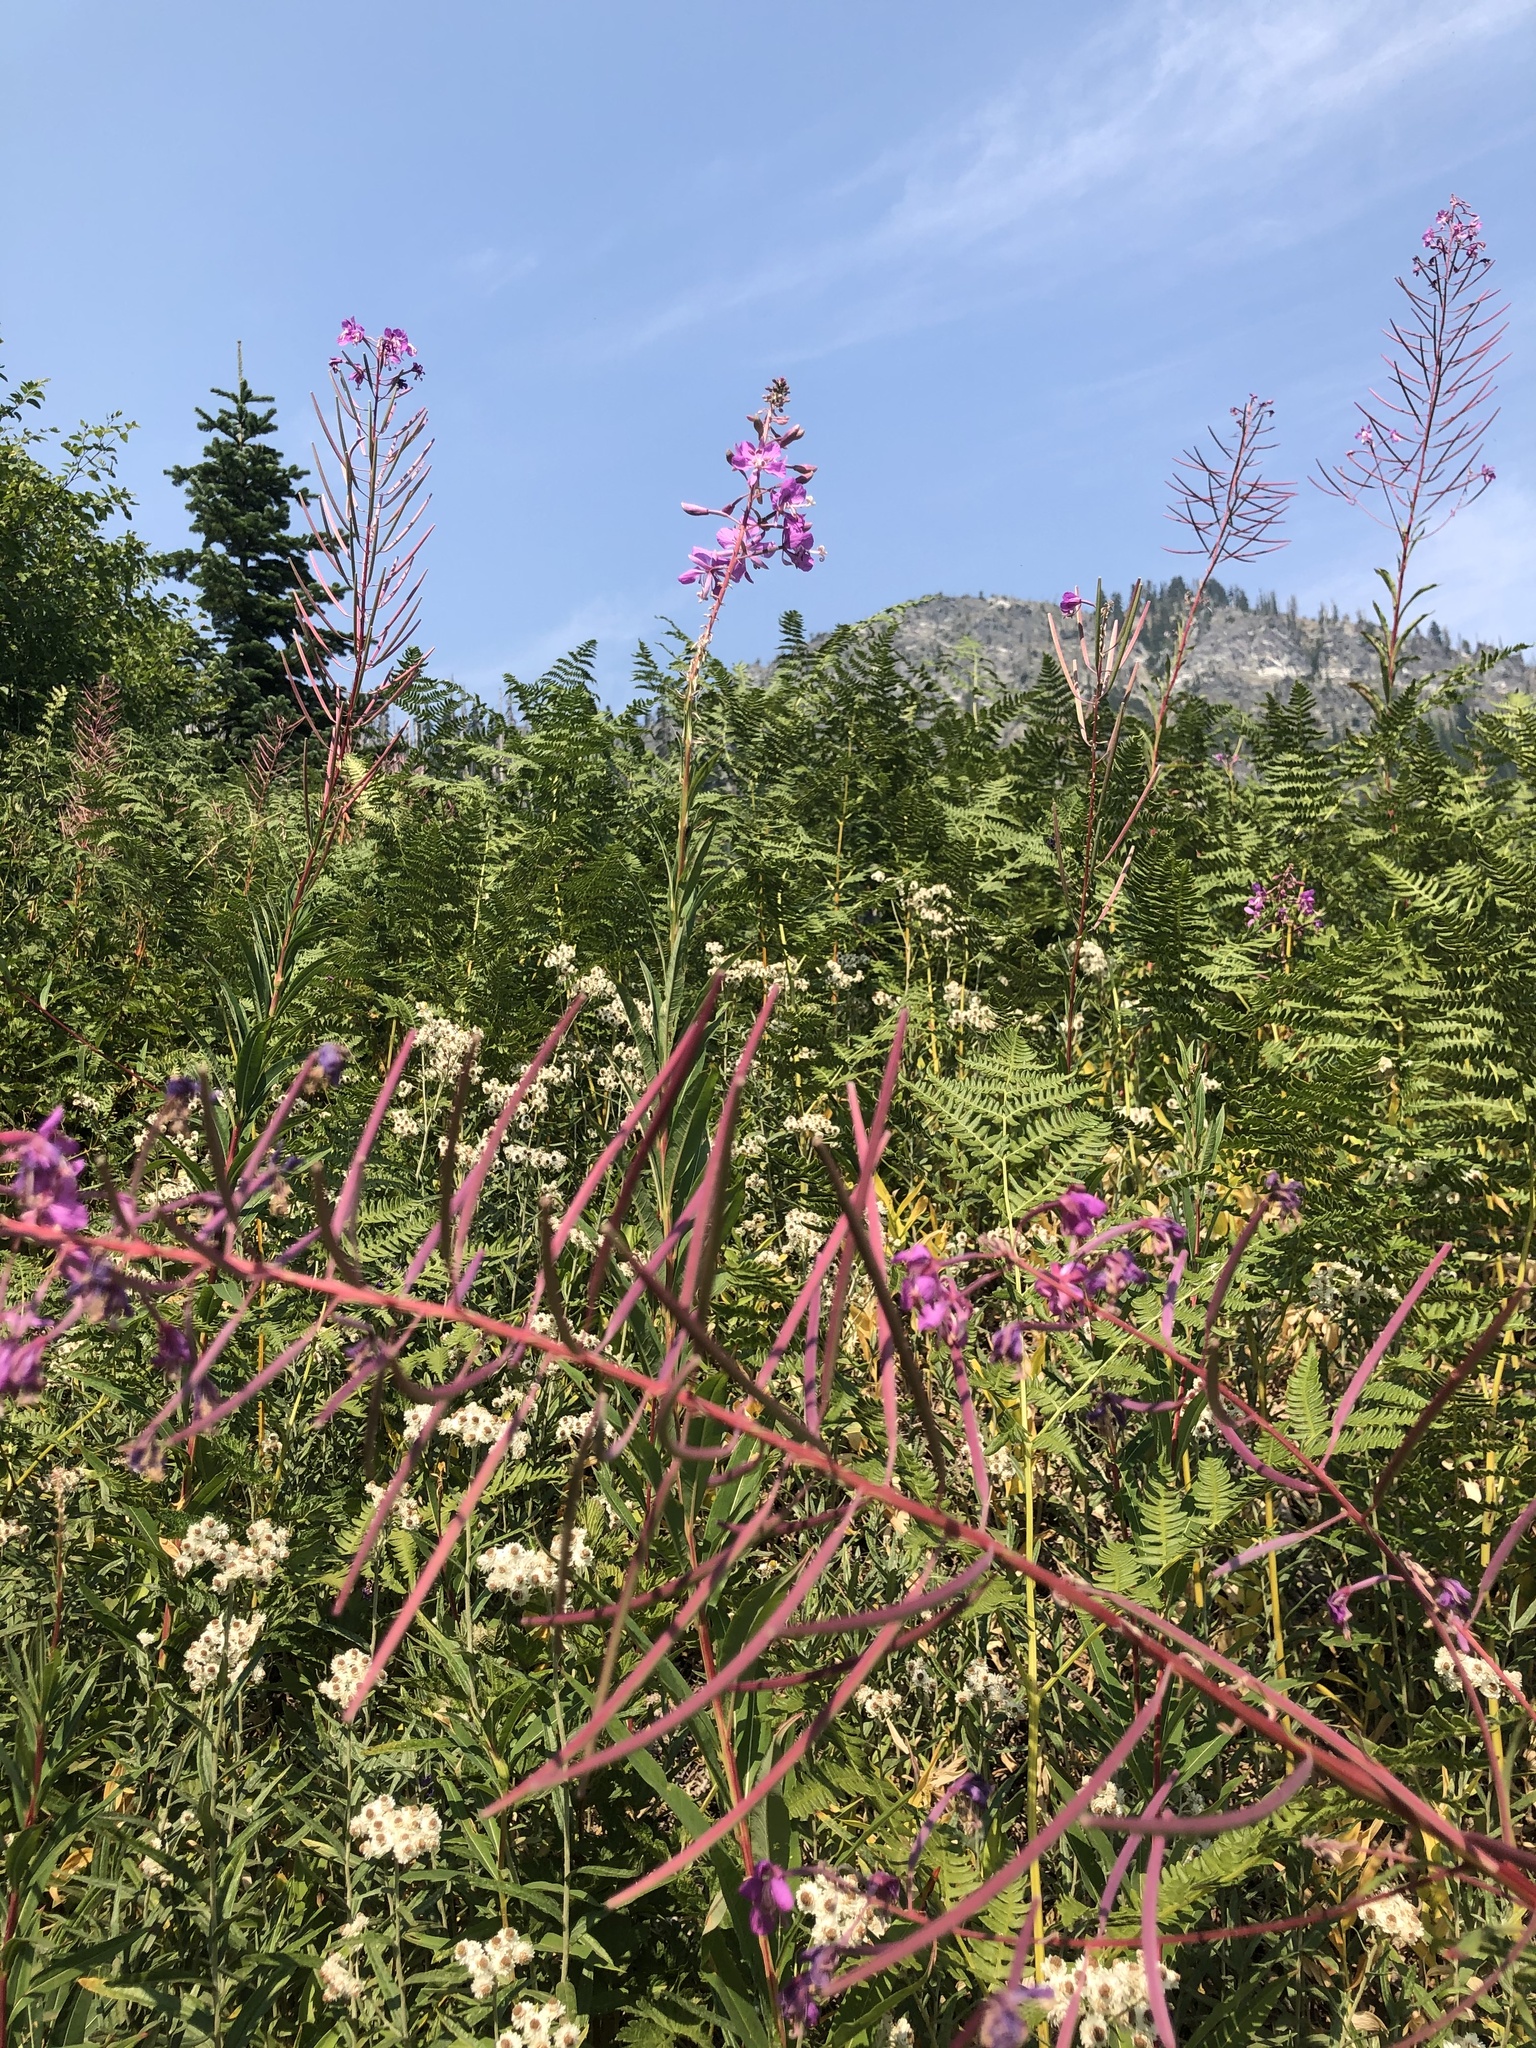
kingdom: Plantae
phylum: Tracheophyta
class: Magnoliopsida
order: Myrtales
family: Onagraceae
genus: Chamaenerion
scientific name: Chamaenerion angustifolium
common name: Fireweed
